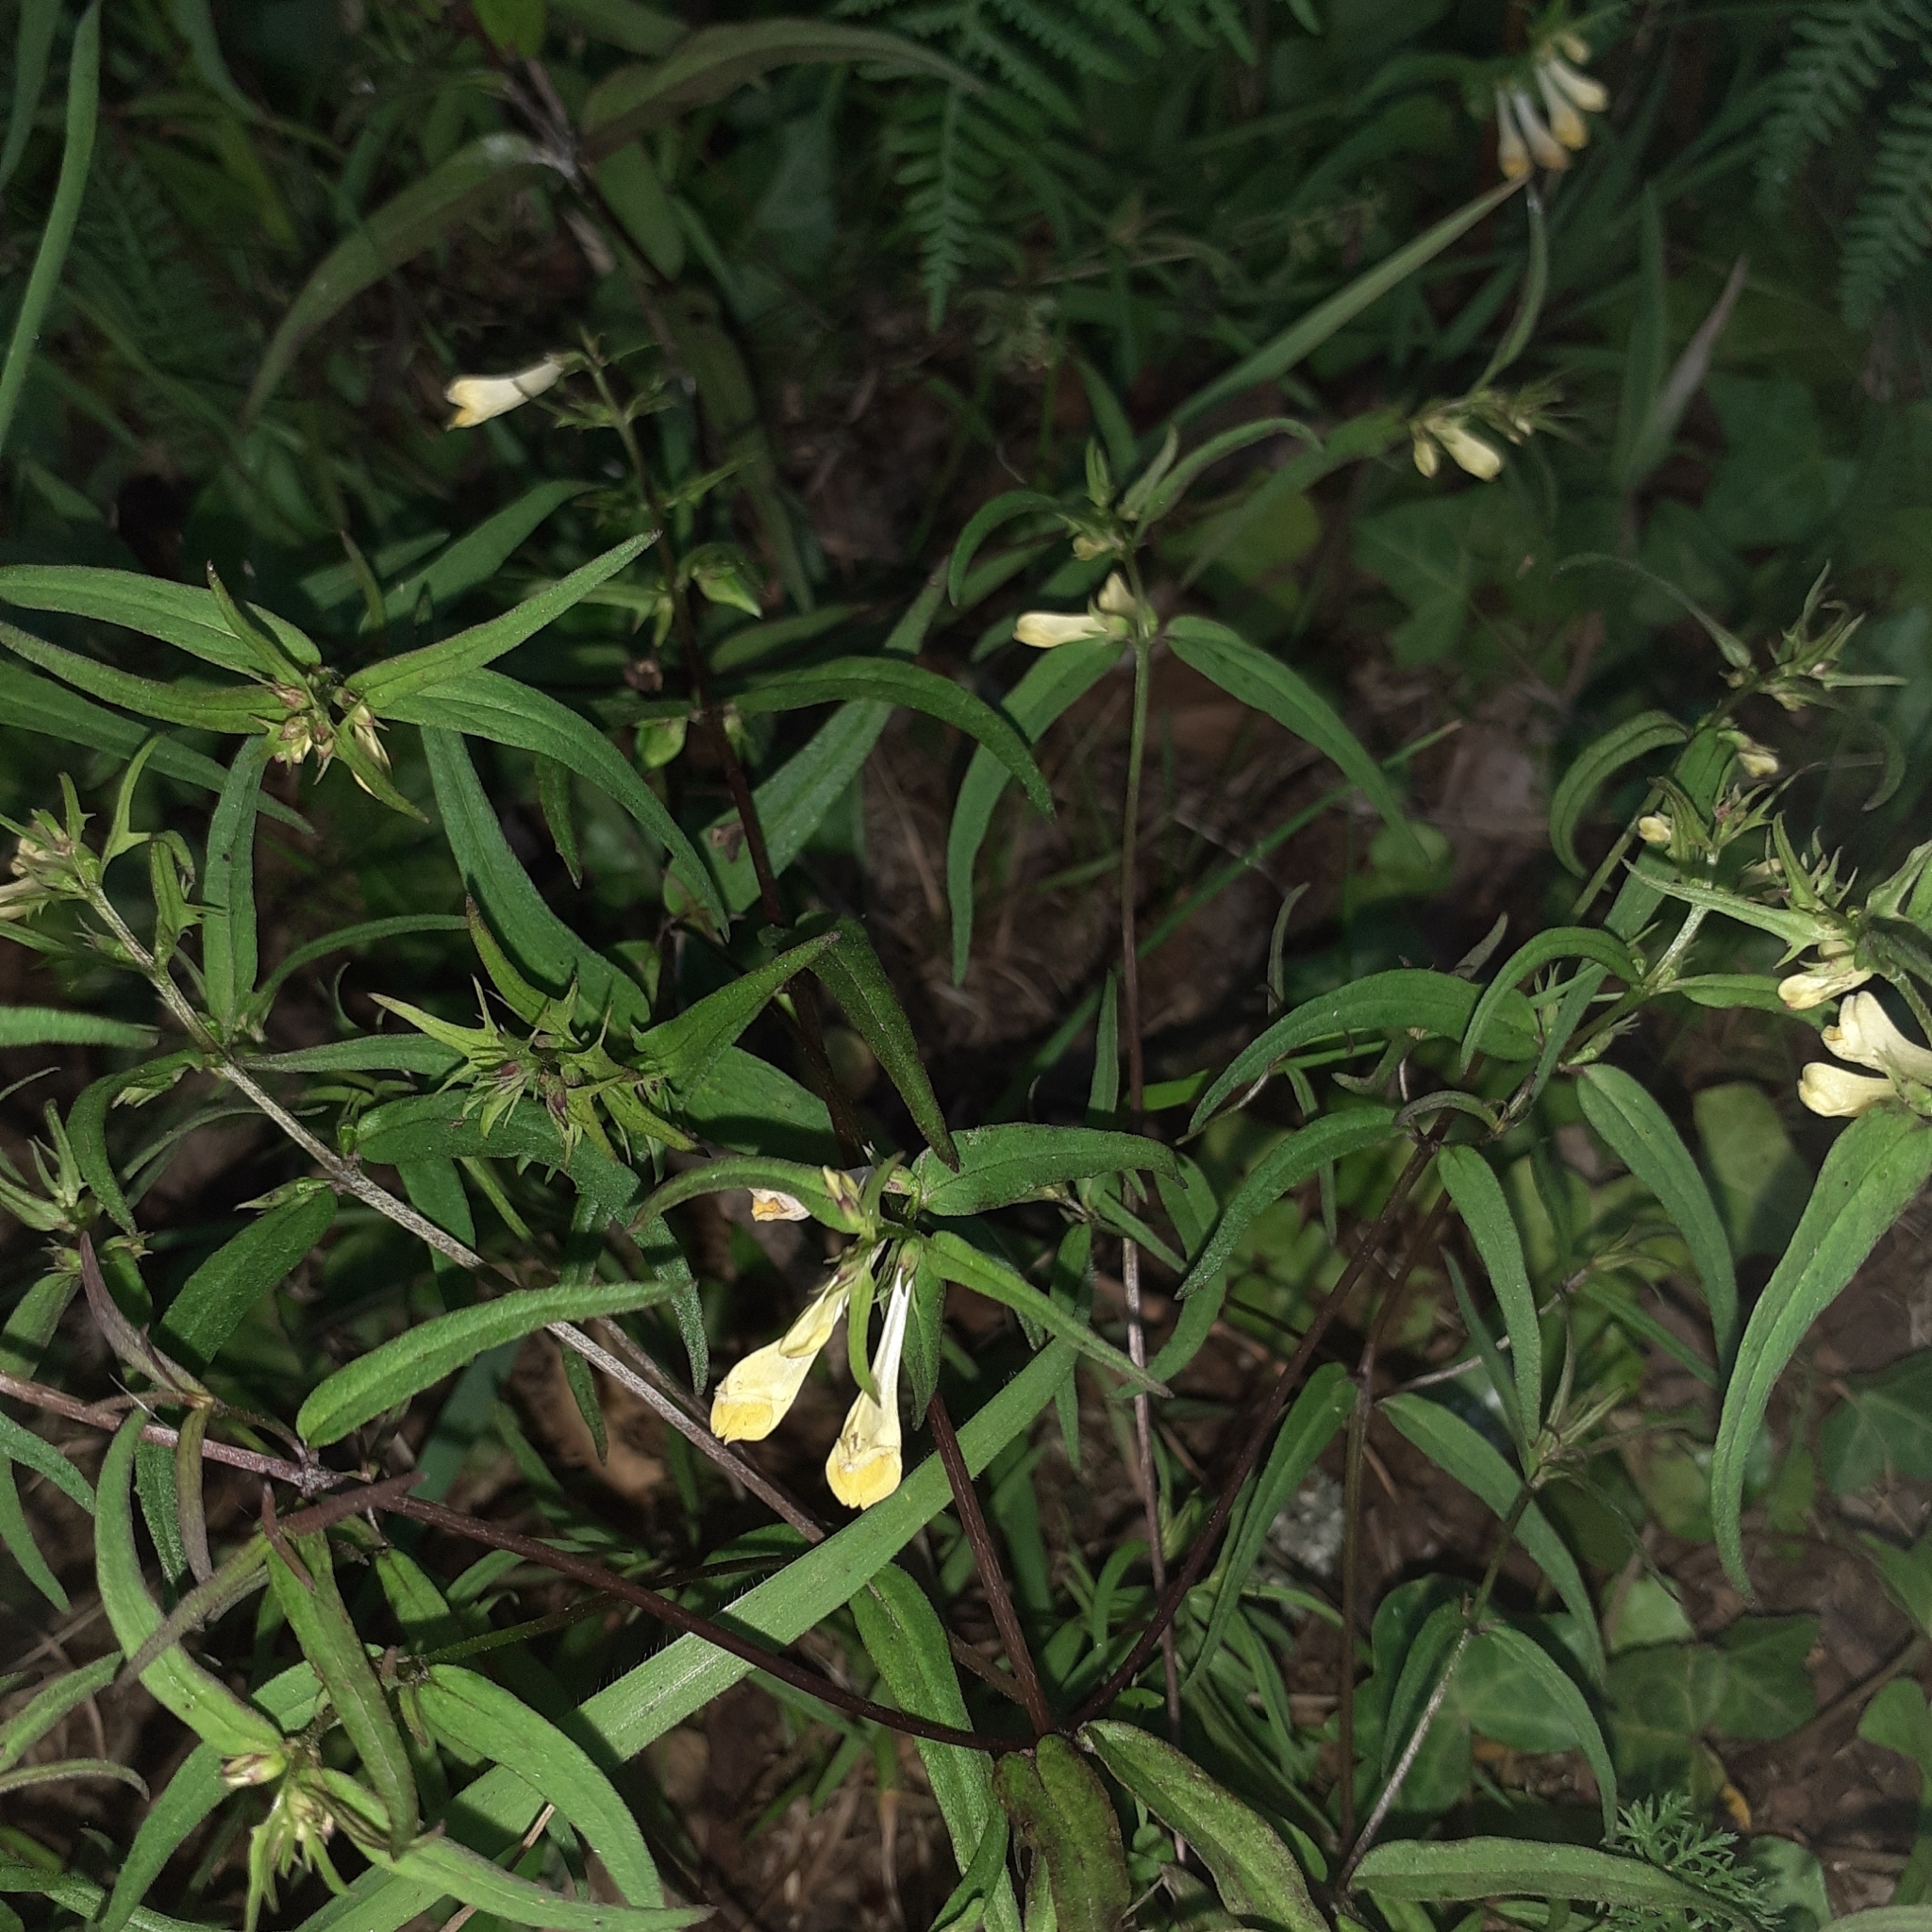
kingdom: Plantae
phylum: Tracheophyta
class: Magnoliopsida
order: Lamiales
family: Orobanchaceae
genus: Melampyrum
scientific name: Melampyrum pratense
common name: Common cow-wheat
